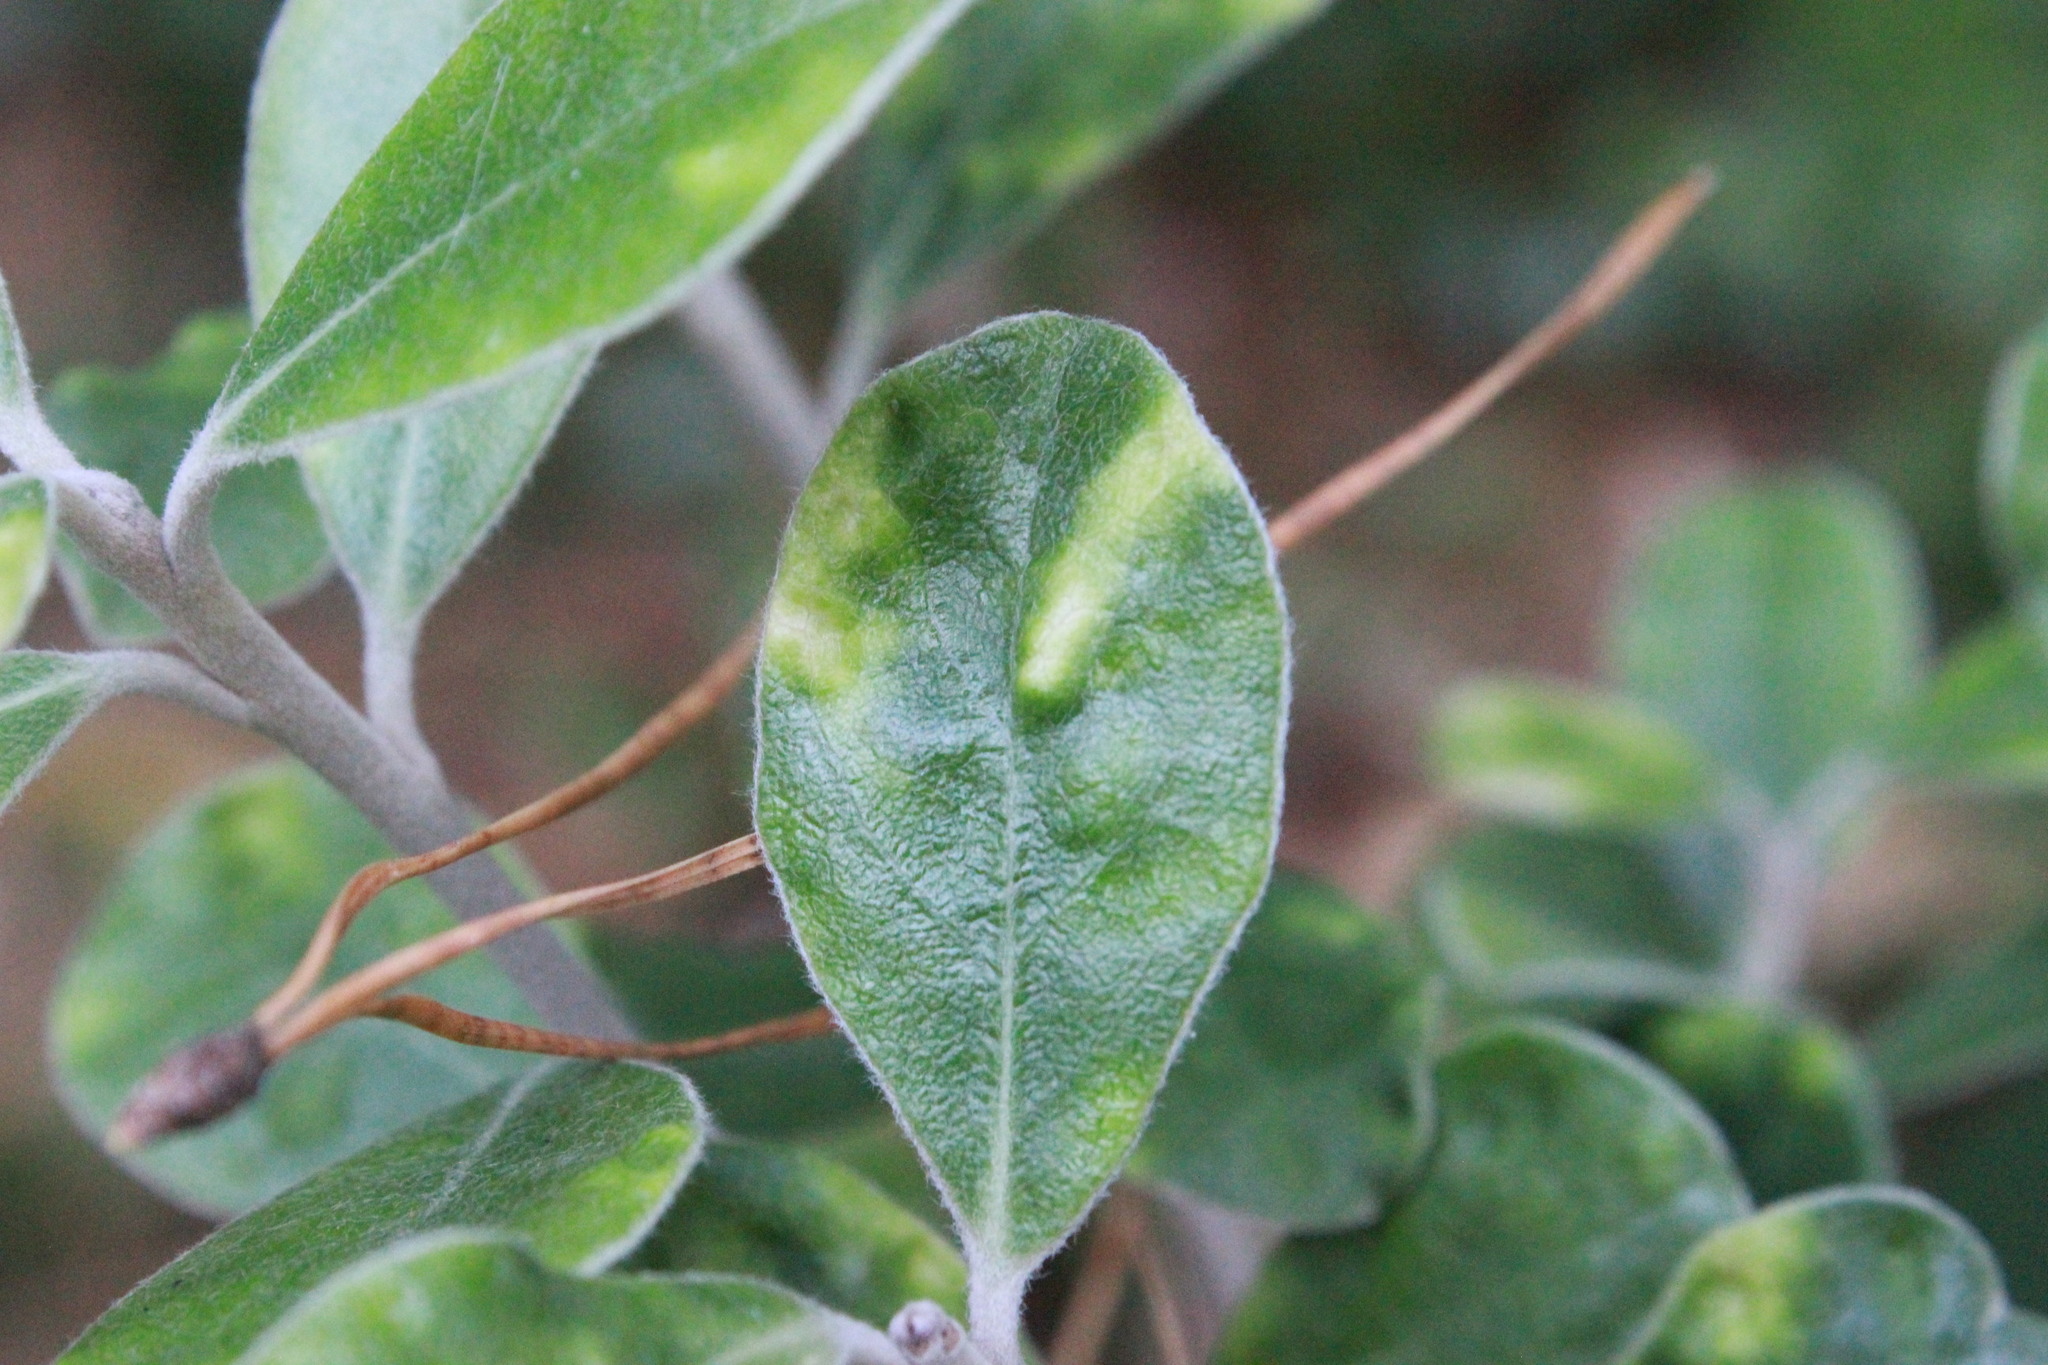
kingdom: Plantae
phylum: Tracheophyta
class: Magnoliopsida
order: Apiales
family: Pittosporaceae
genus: Pittosporum
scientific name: Pittosporum crassifolium
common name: Karo
